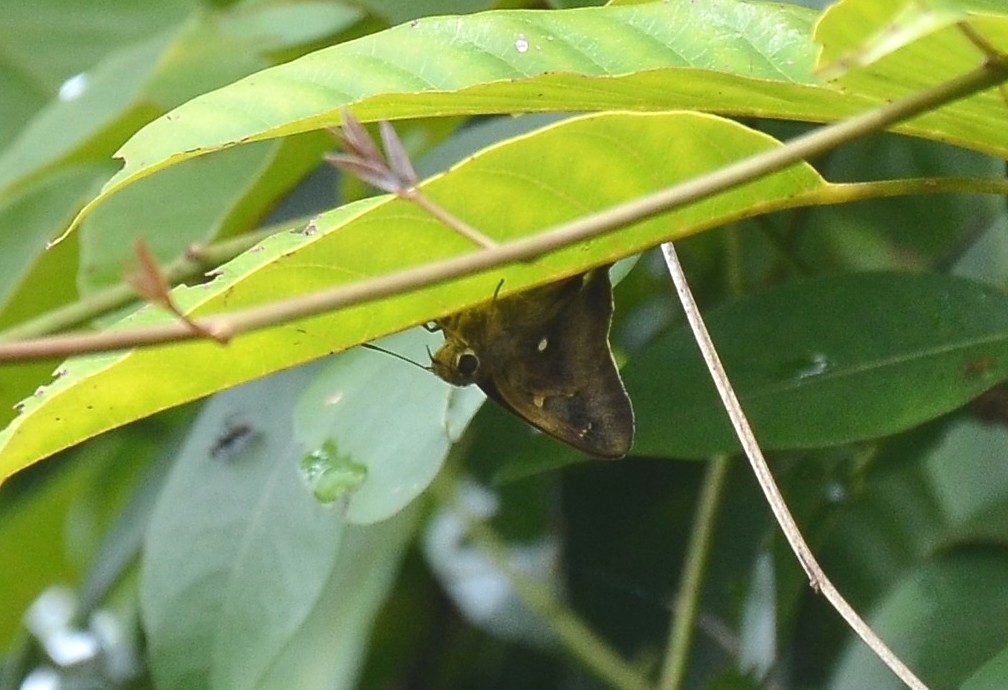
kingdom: Animalia
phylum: Arthropoda
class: Insecta
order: Lepidoptera
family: Hesperiidae
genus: Hasora
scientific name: Hasora badra
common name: Common awl
